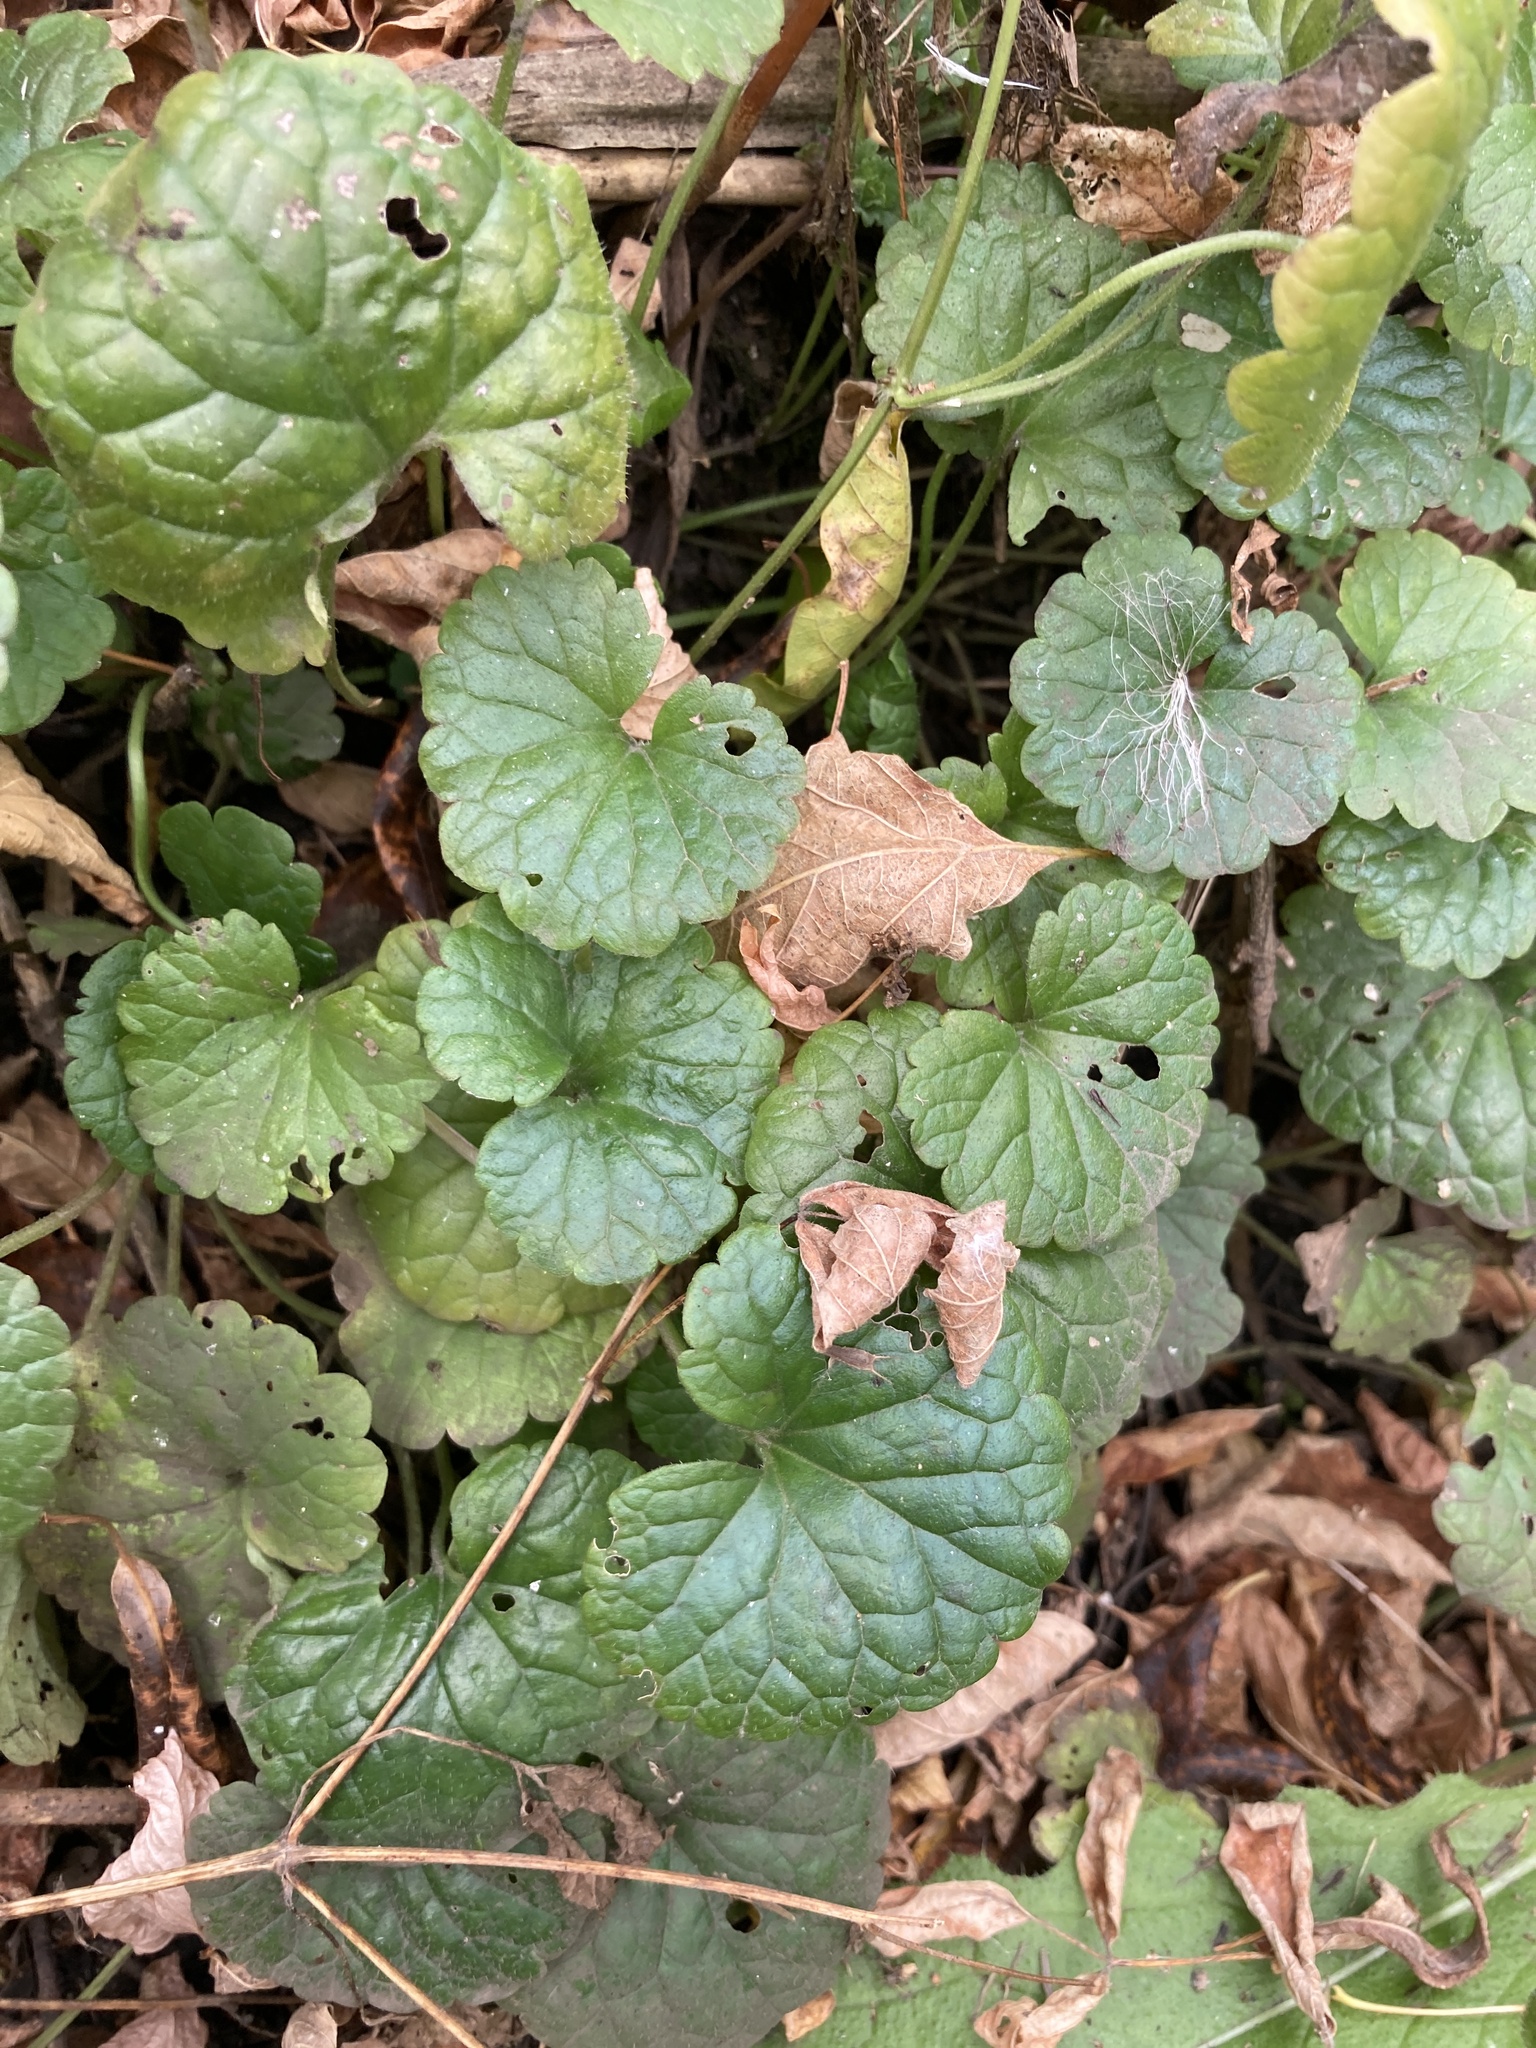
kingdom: Plantae
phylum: Tracheophyta
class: Magnoliopsida
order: Lamiales
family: Lamiaceae
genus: Glechoma
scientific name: Glechoma hederacea
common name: Ground ivy
